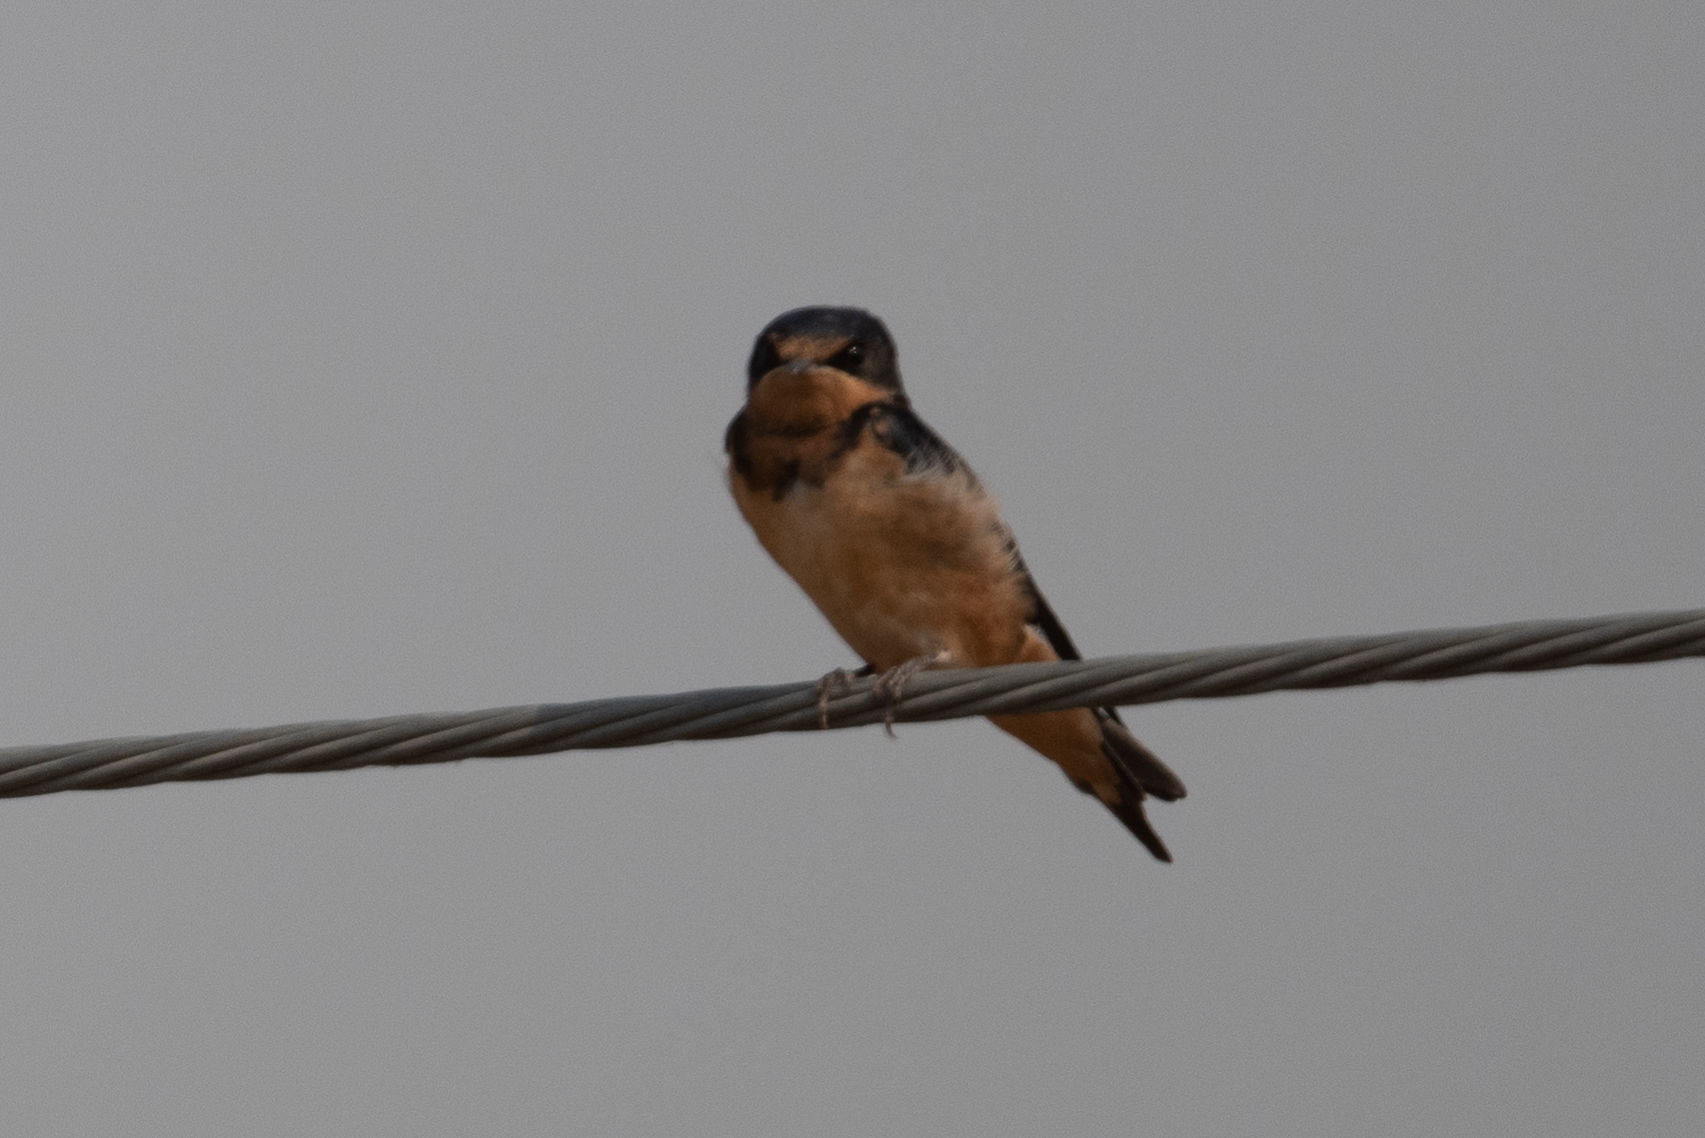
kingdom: Animalia
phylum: Chordata
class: Aves
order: Passeriformes
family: Hirundinidae
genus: Hirundo
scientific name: Hirundo rustica
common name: Barn swallow
